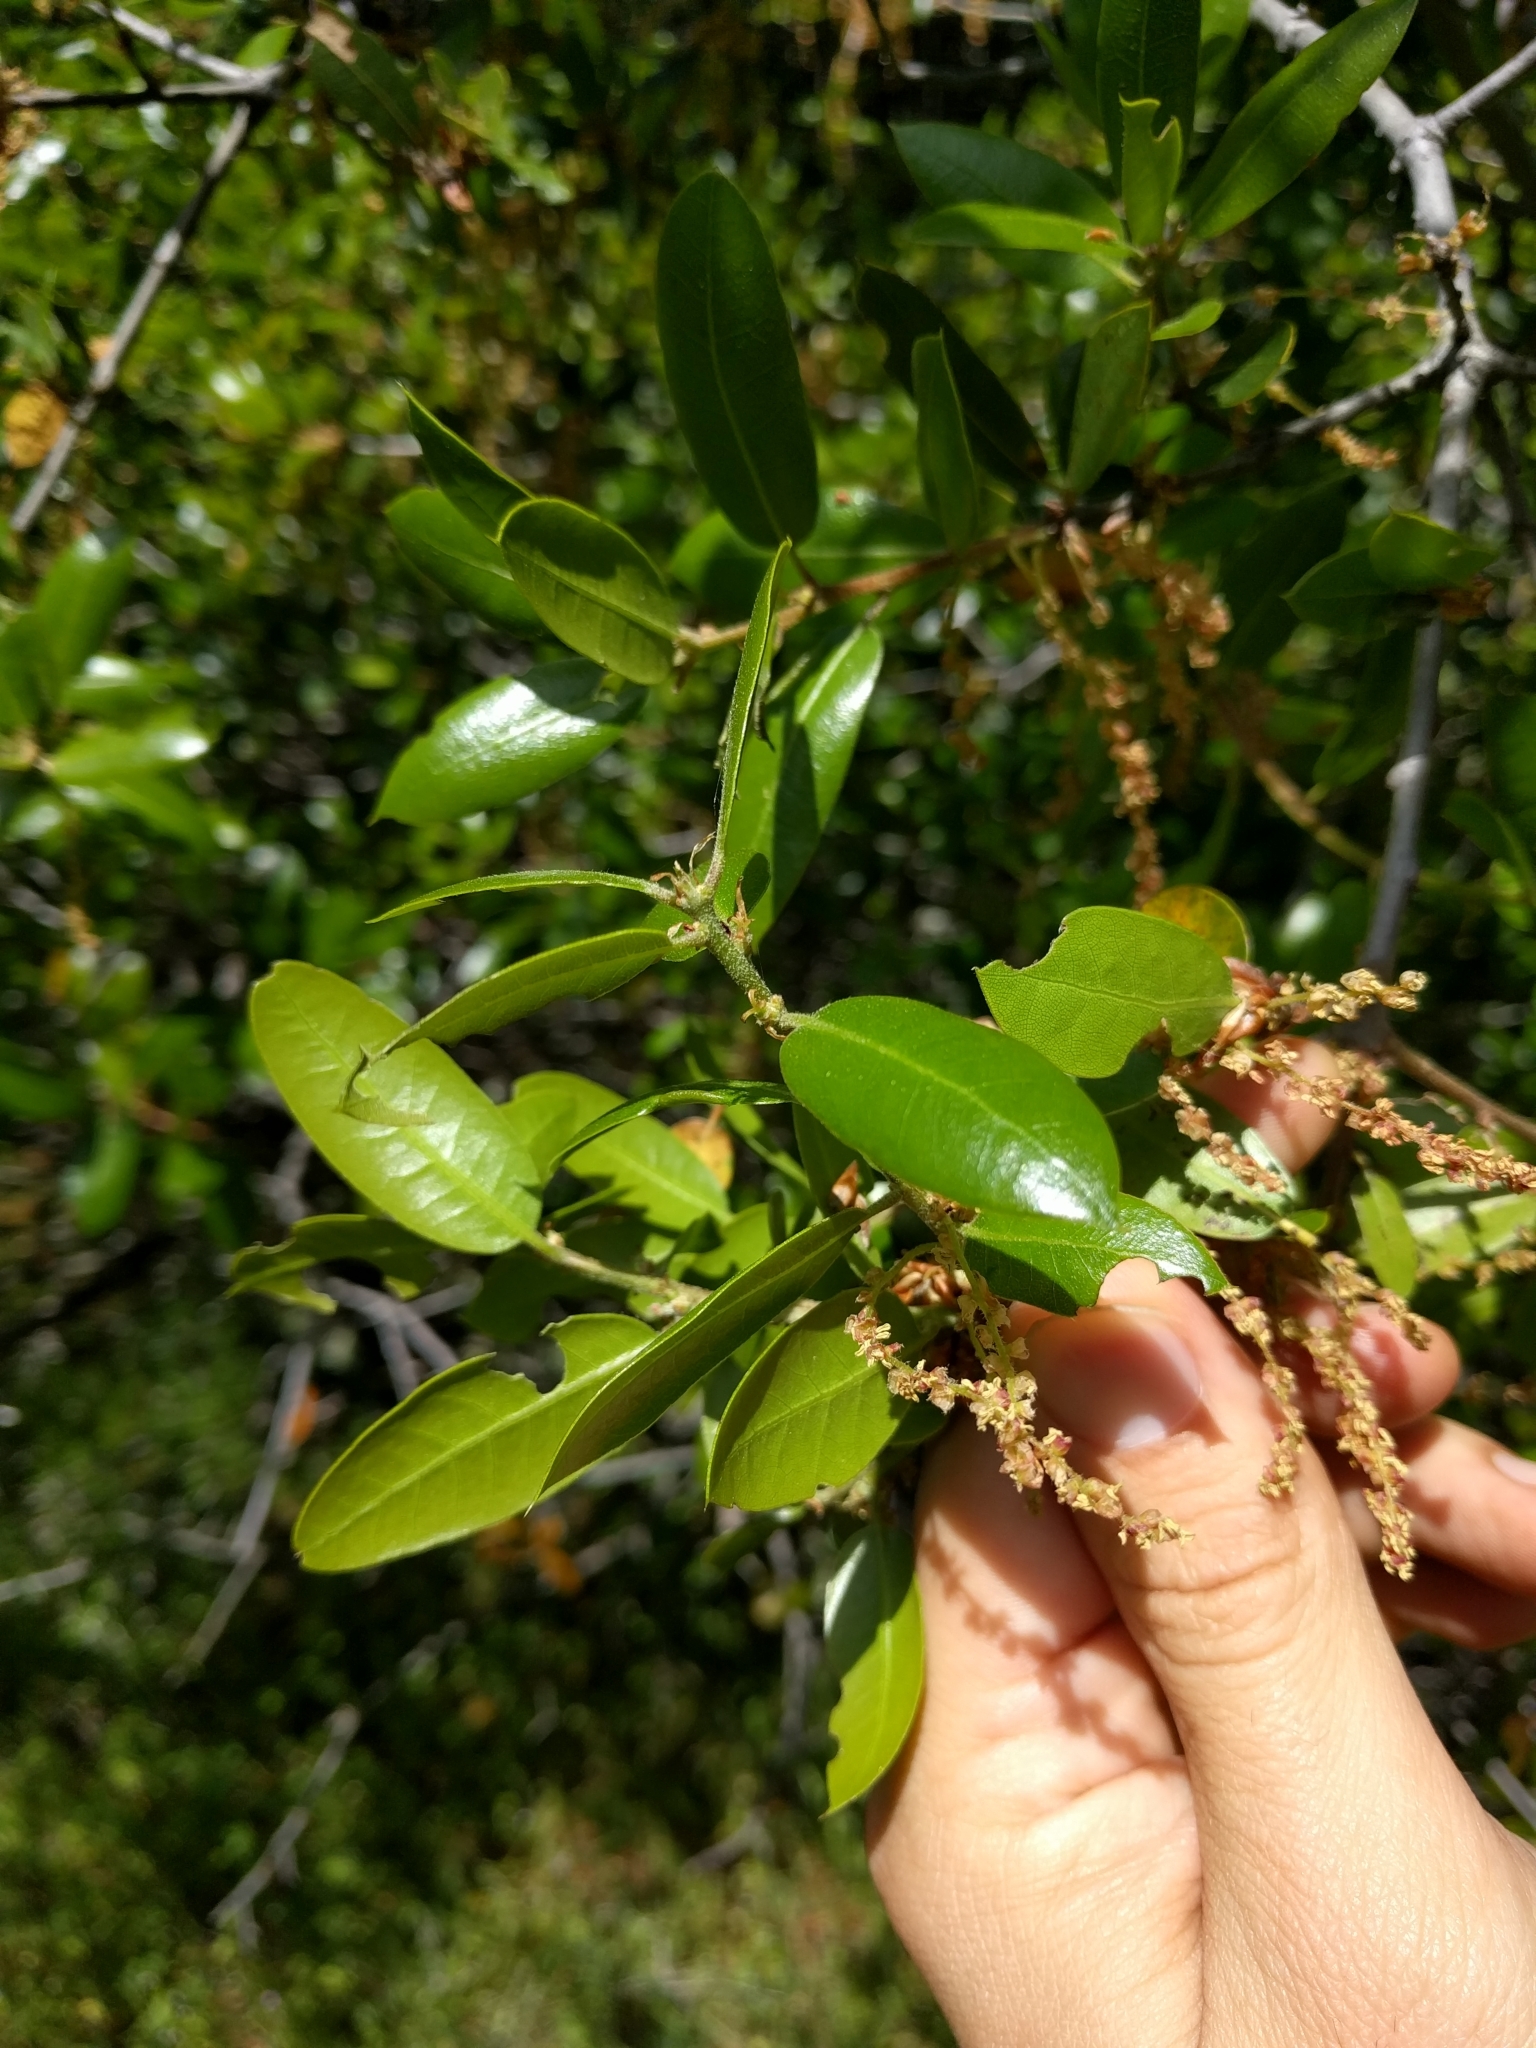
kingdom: Plantae
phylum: Tracheophyta
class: Magnoliopsida
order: Fagales
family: Fagaceae
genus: Quercus
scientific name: Quercus wislizeni
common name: Interior live oak
